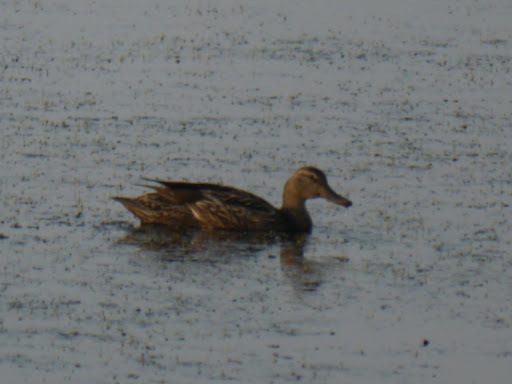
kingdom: Animalia
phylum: Chordata
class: Aves
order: Anseriformes
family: Anatidae
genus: Anas
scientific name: Anas platyrhynchos
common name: Mallard
